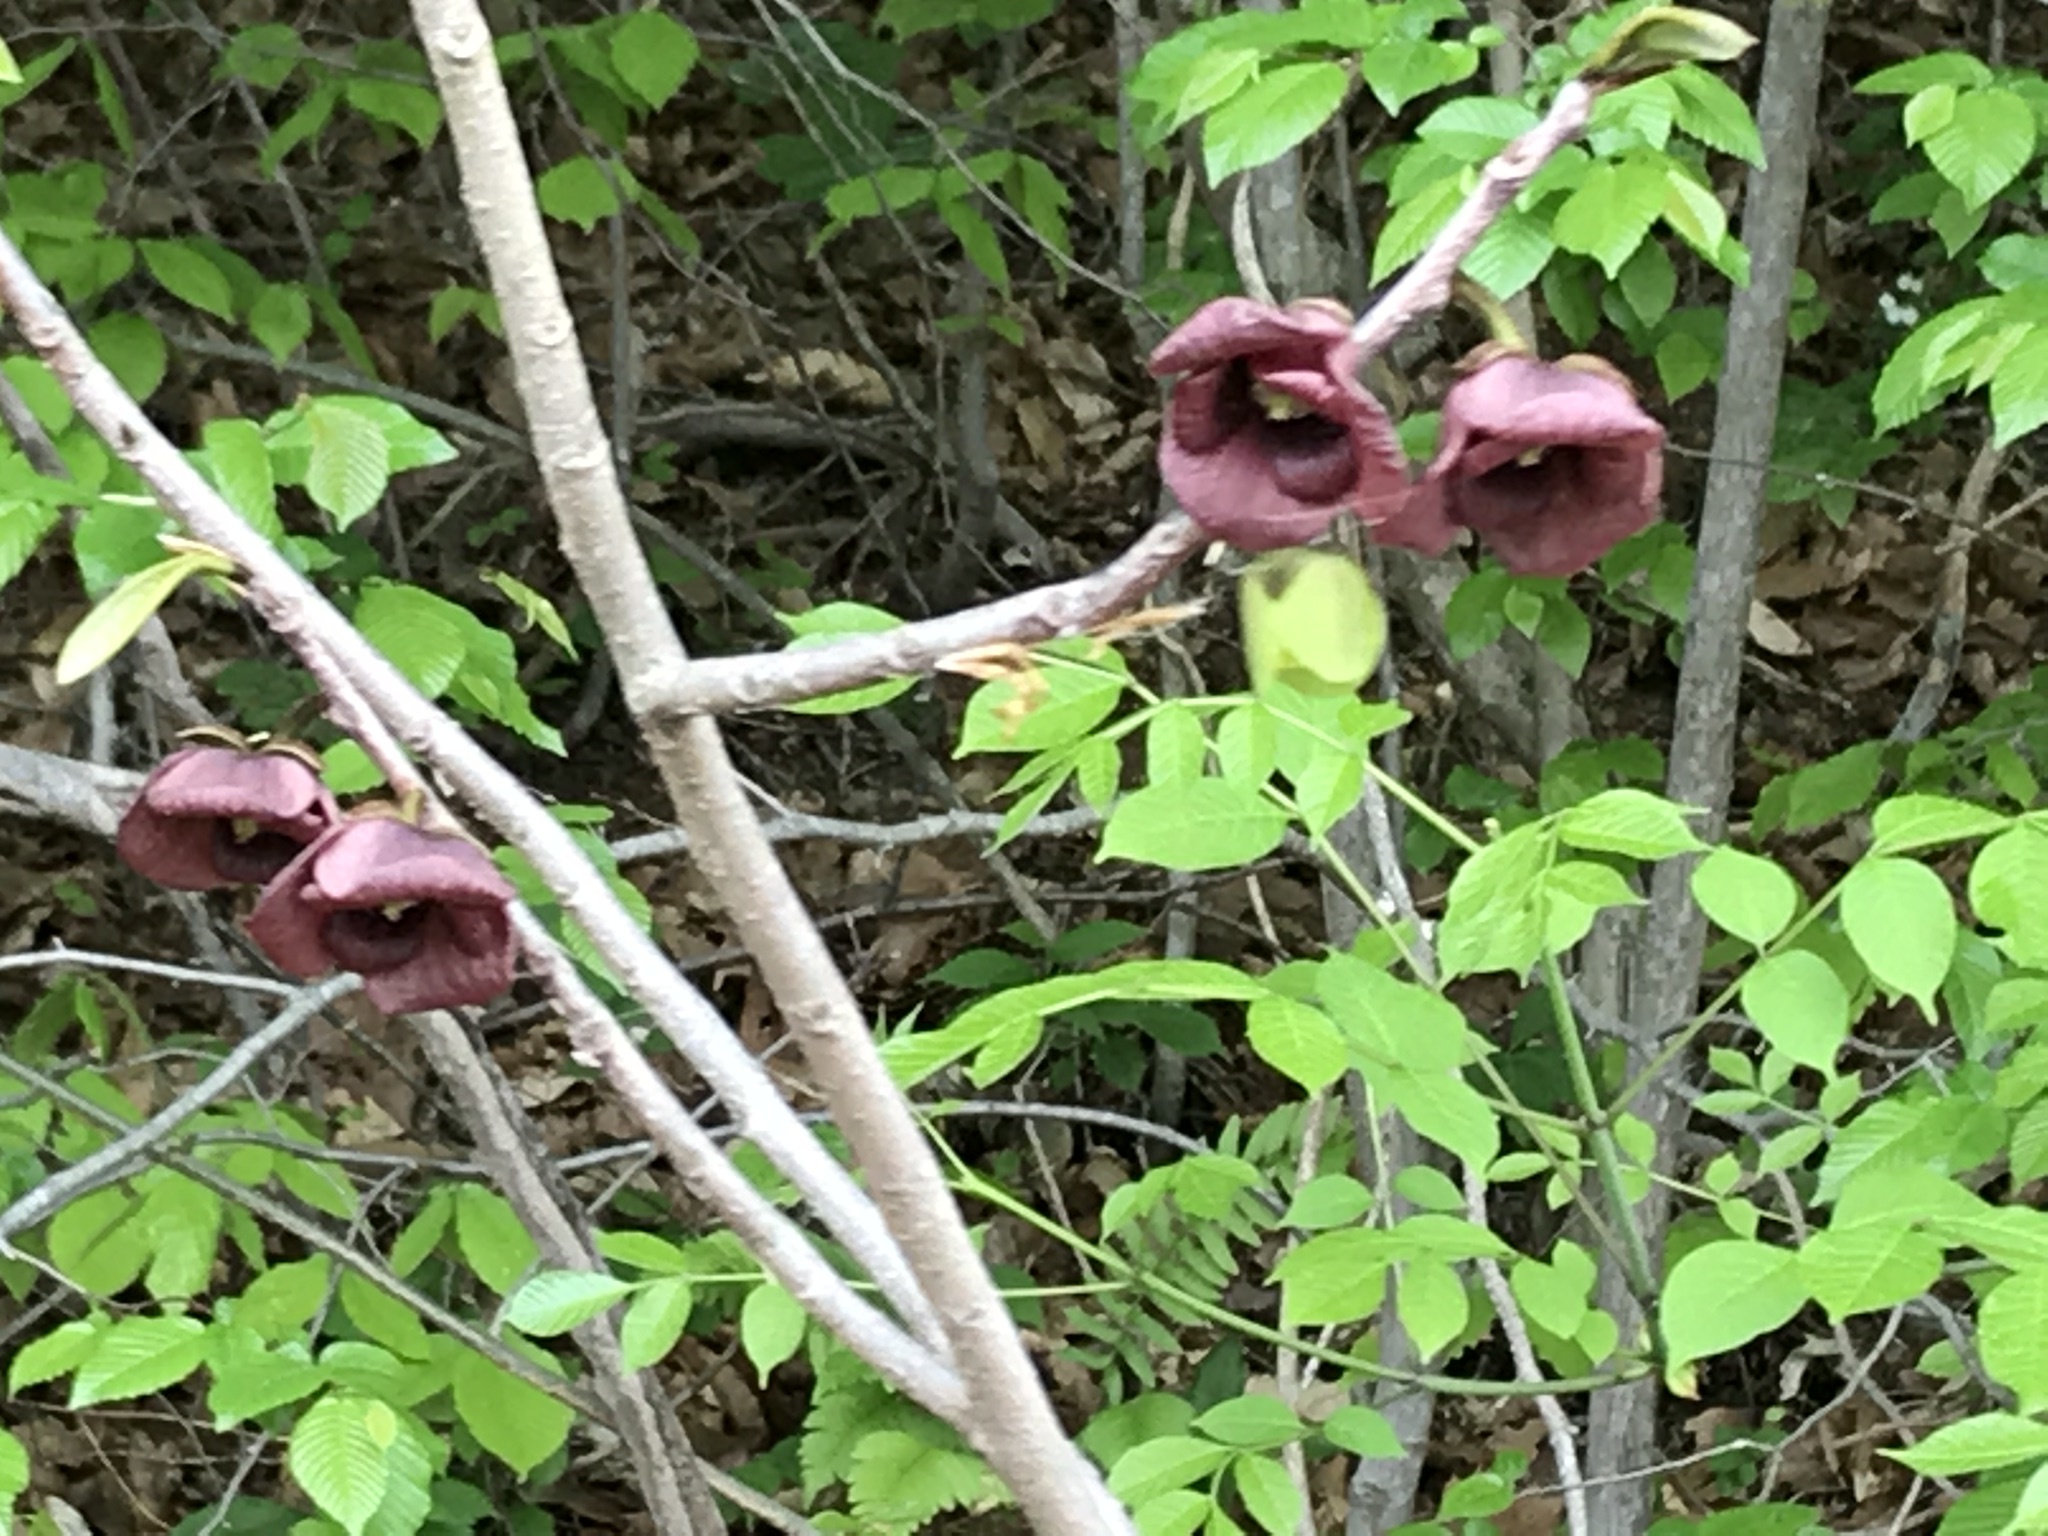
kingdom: Plantae
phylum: Tracheophyta
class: Magnoliopsida
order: Magnoliales
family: Annonaceae
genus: Asimina
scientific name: Asimina triloba
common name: Dog-banana
